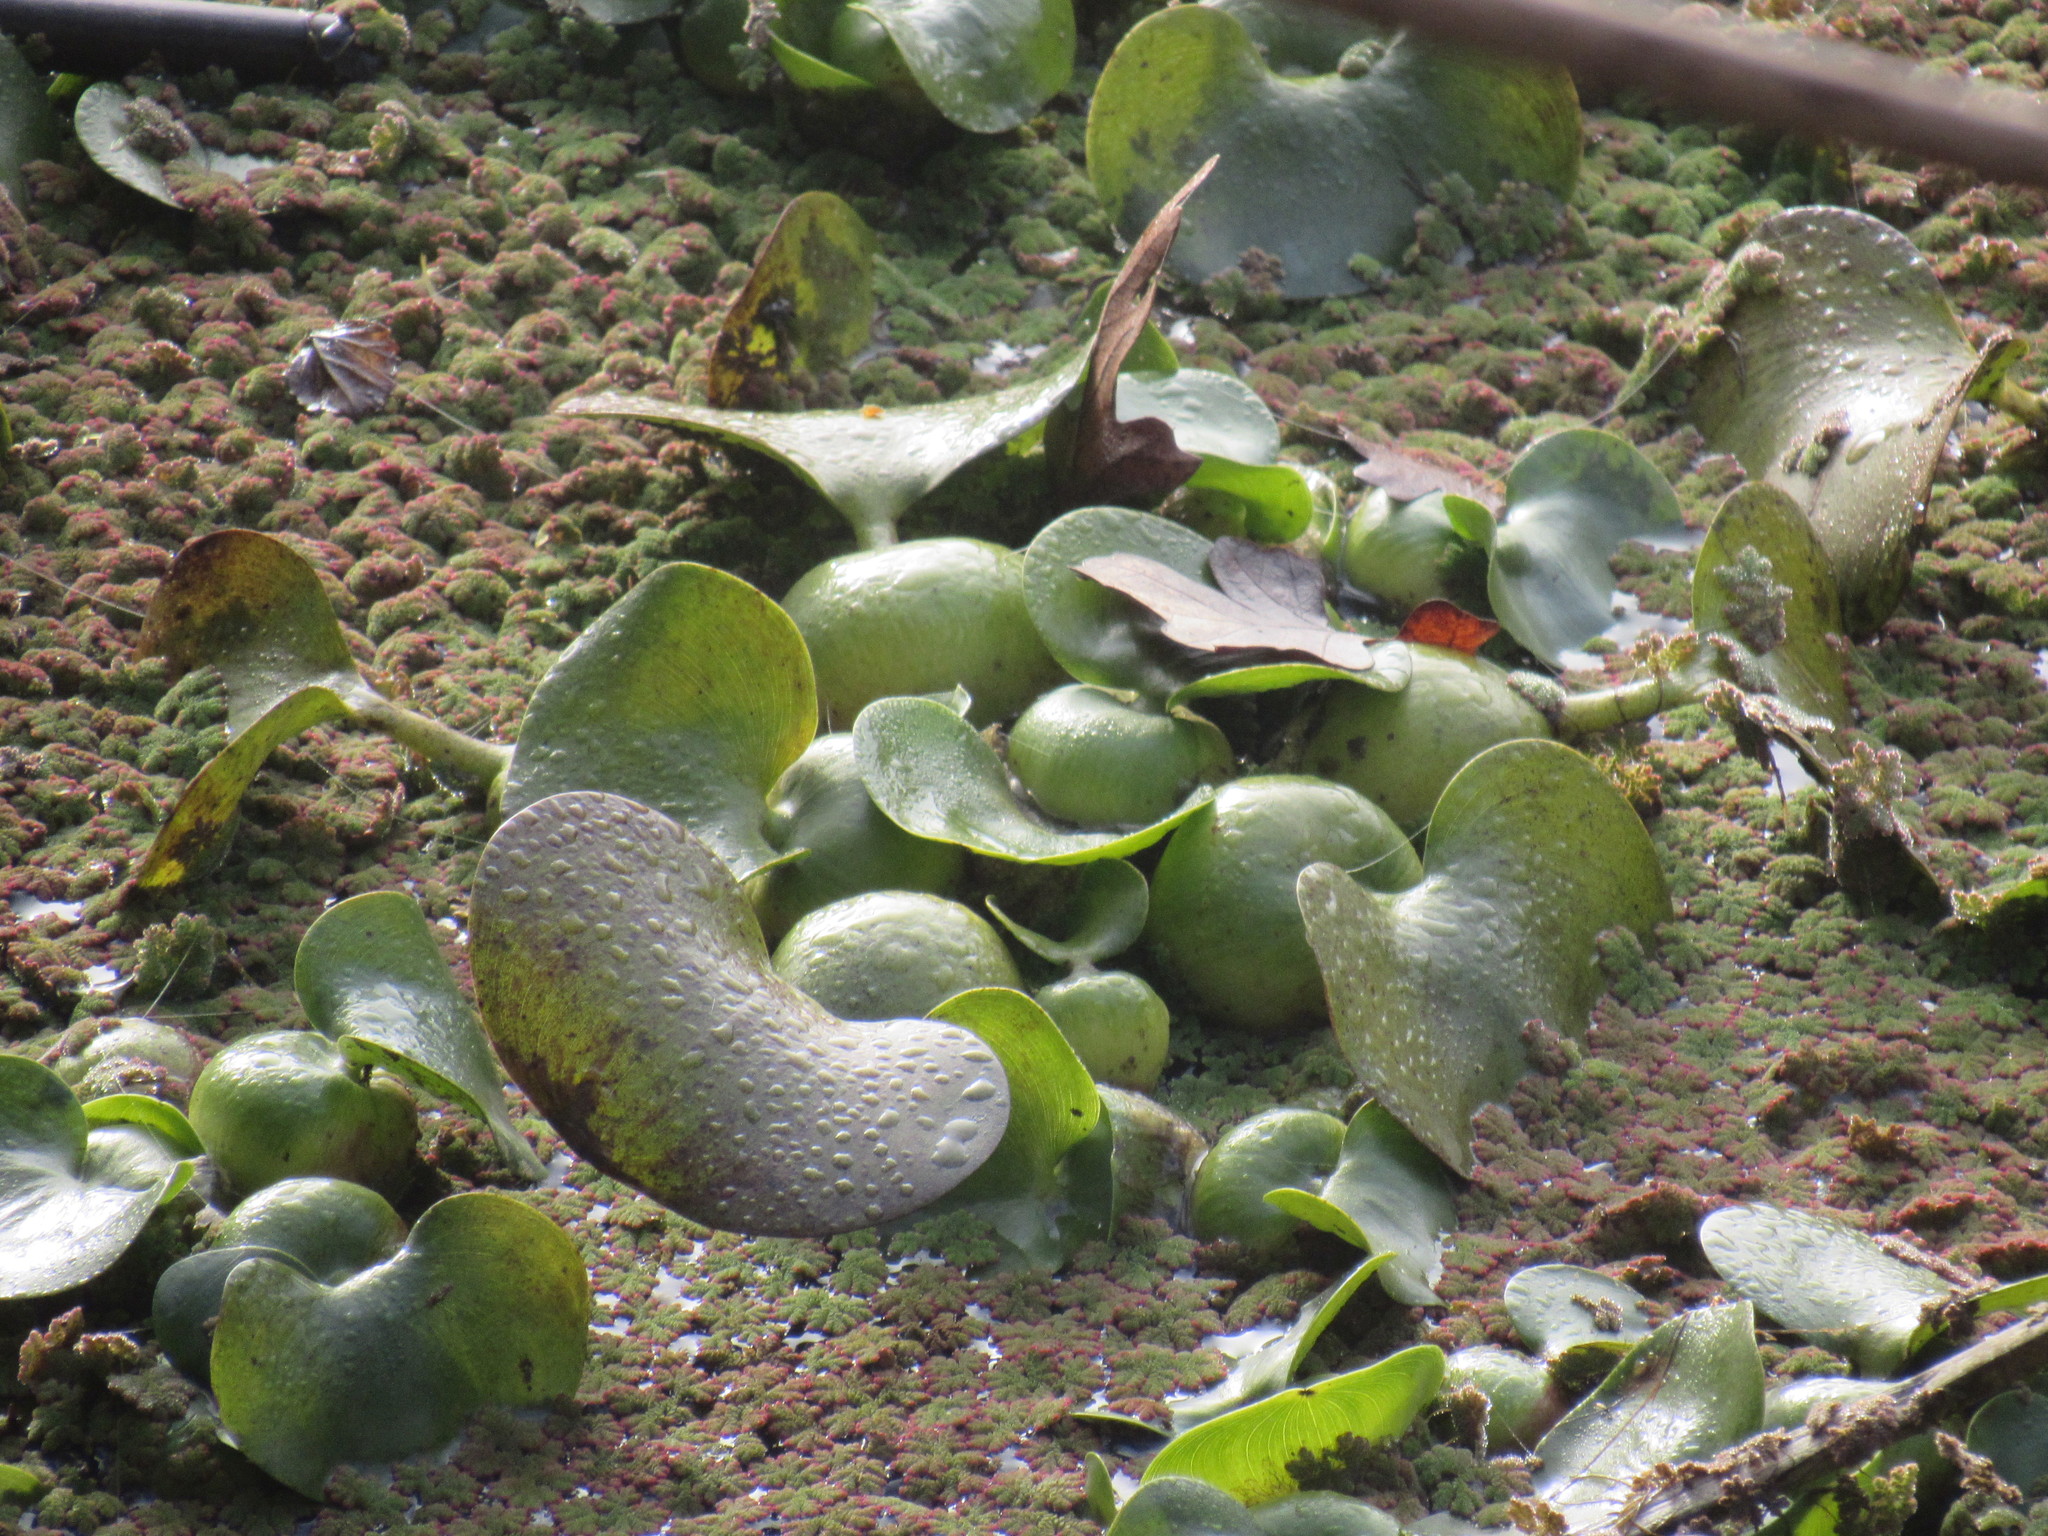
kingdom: Plantae
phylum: Tracheophyta
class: Liliopsida
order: Commelinales
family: Pontederiaceae
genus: Pontederia
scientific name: Pontederia crassipes
